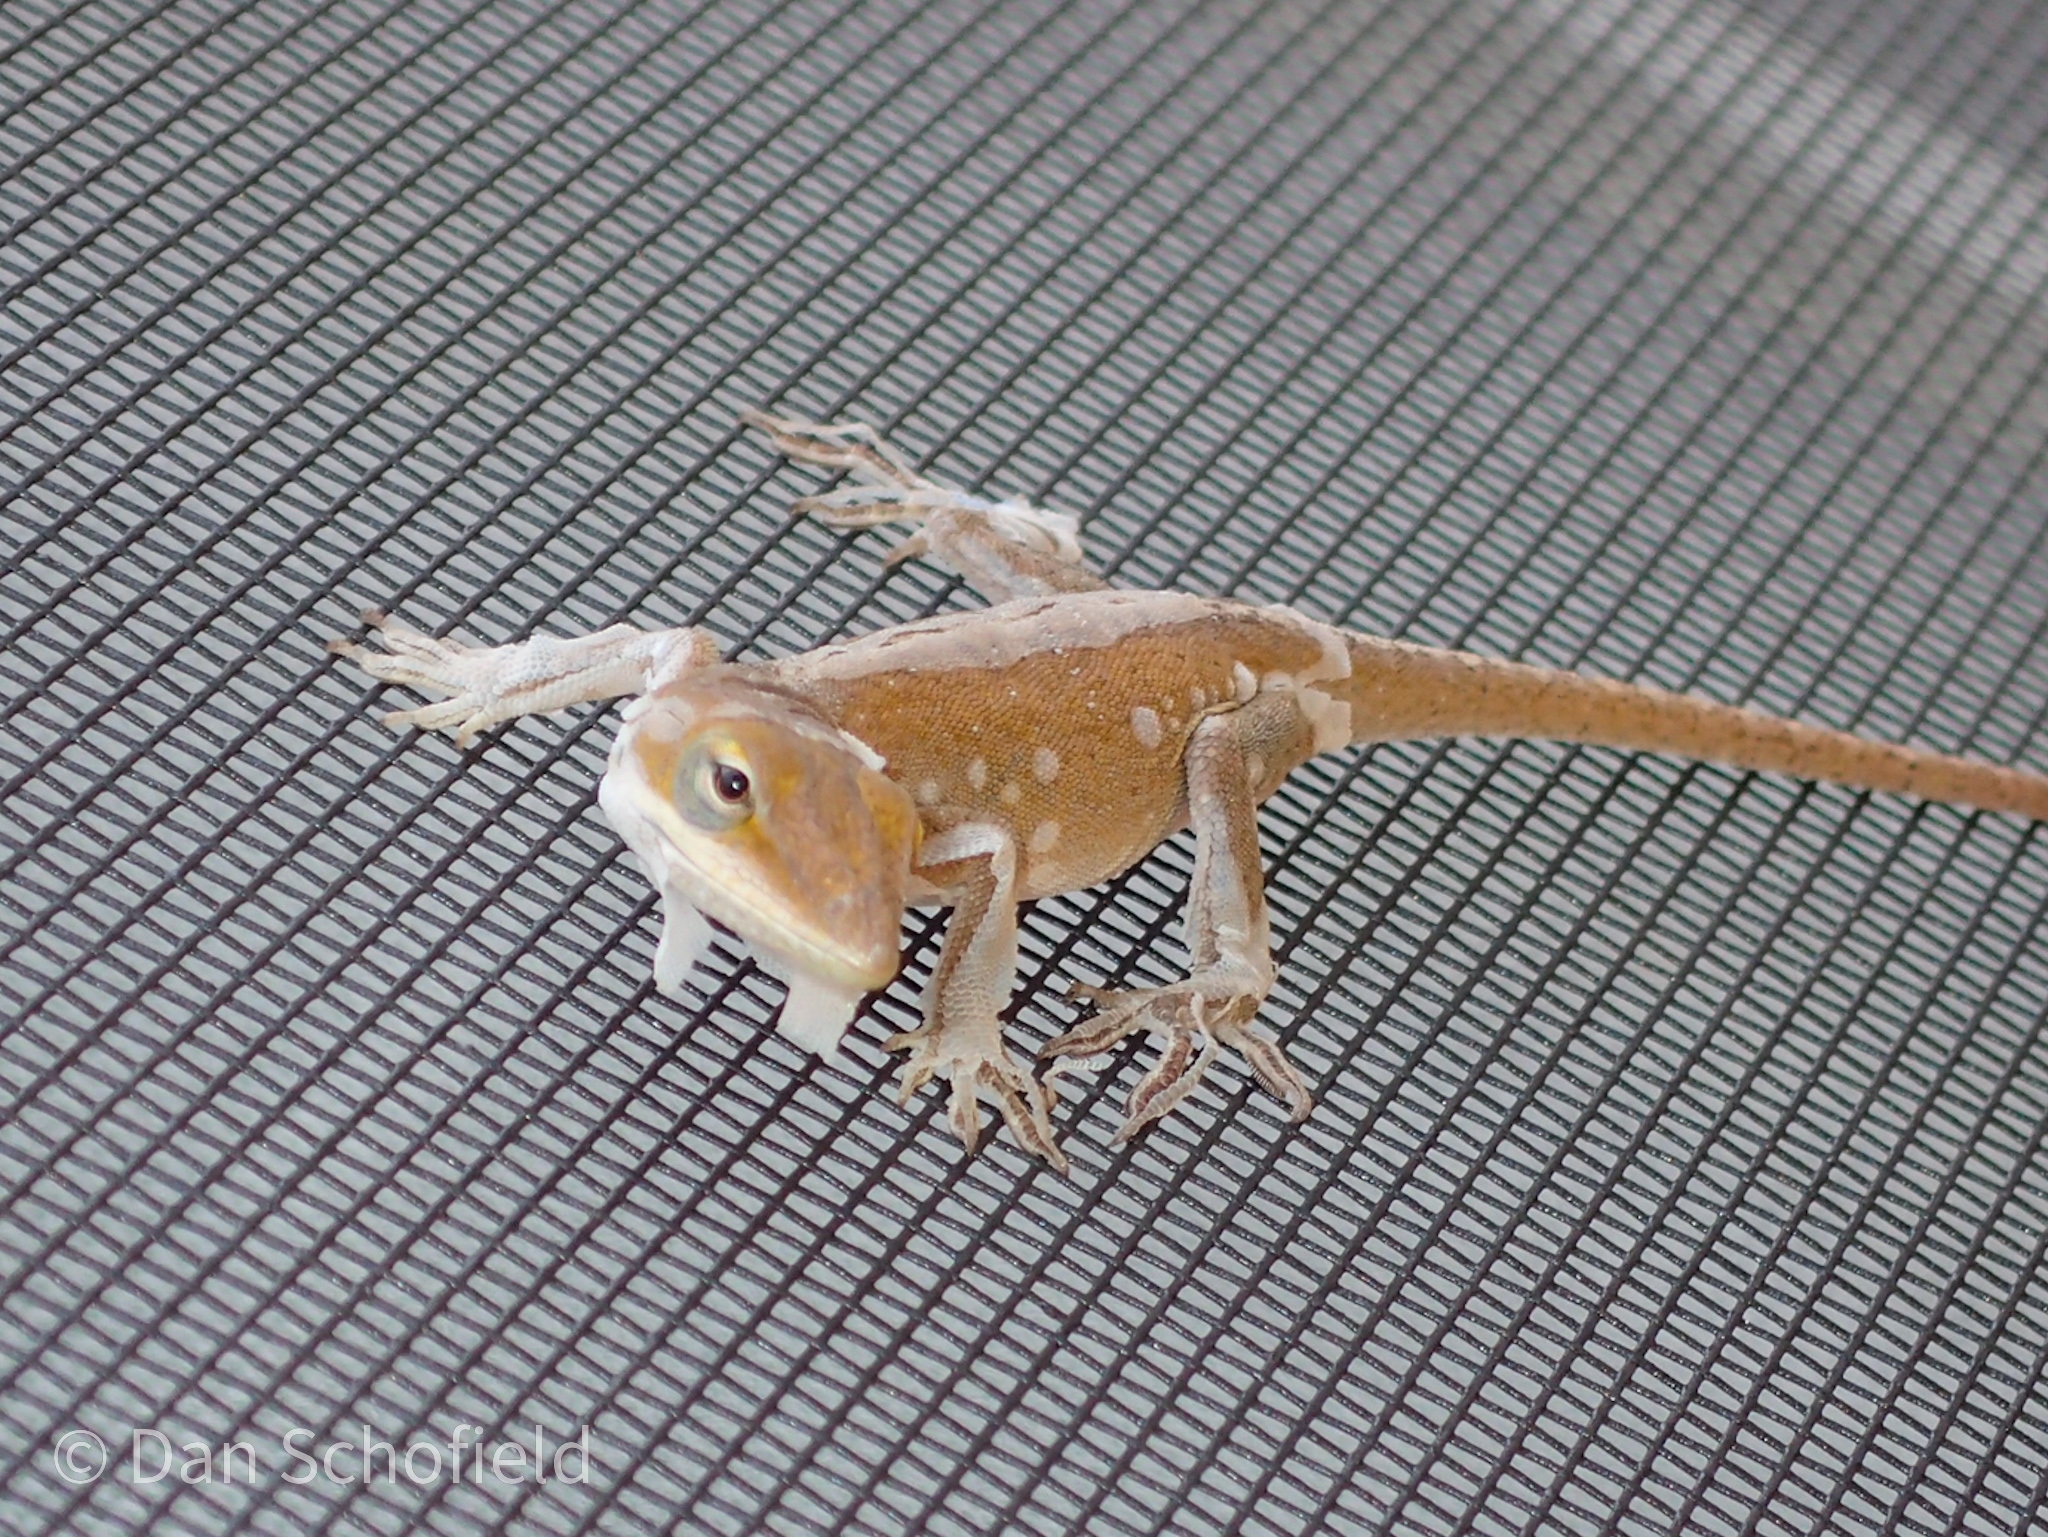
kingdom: Animalia
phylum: Chordata
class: Squamata
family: Dactyloidae
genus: Anolis
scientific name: Anolis carolinensis
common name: Green anole
